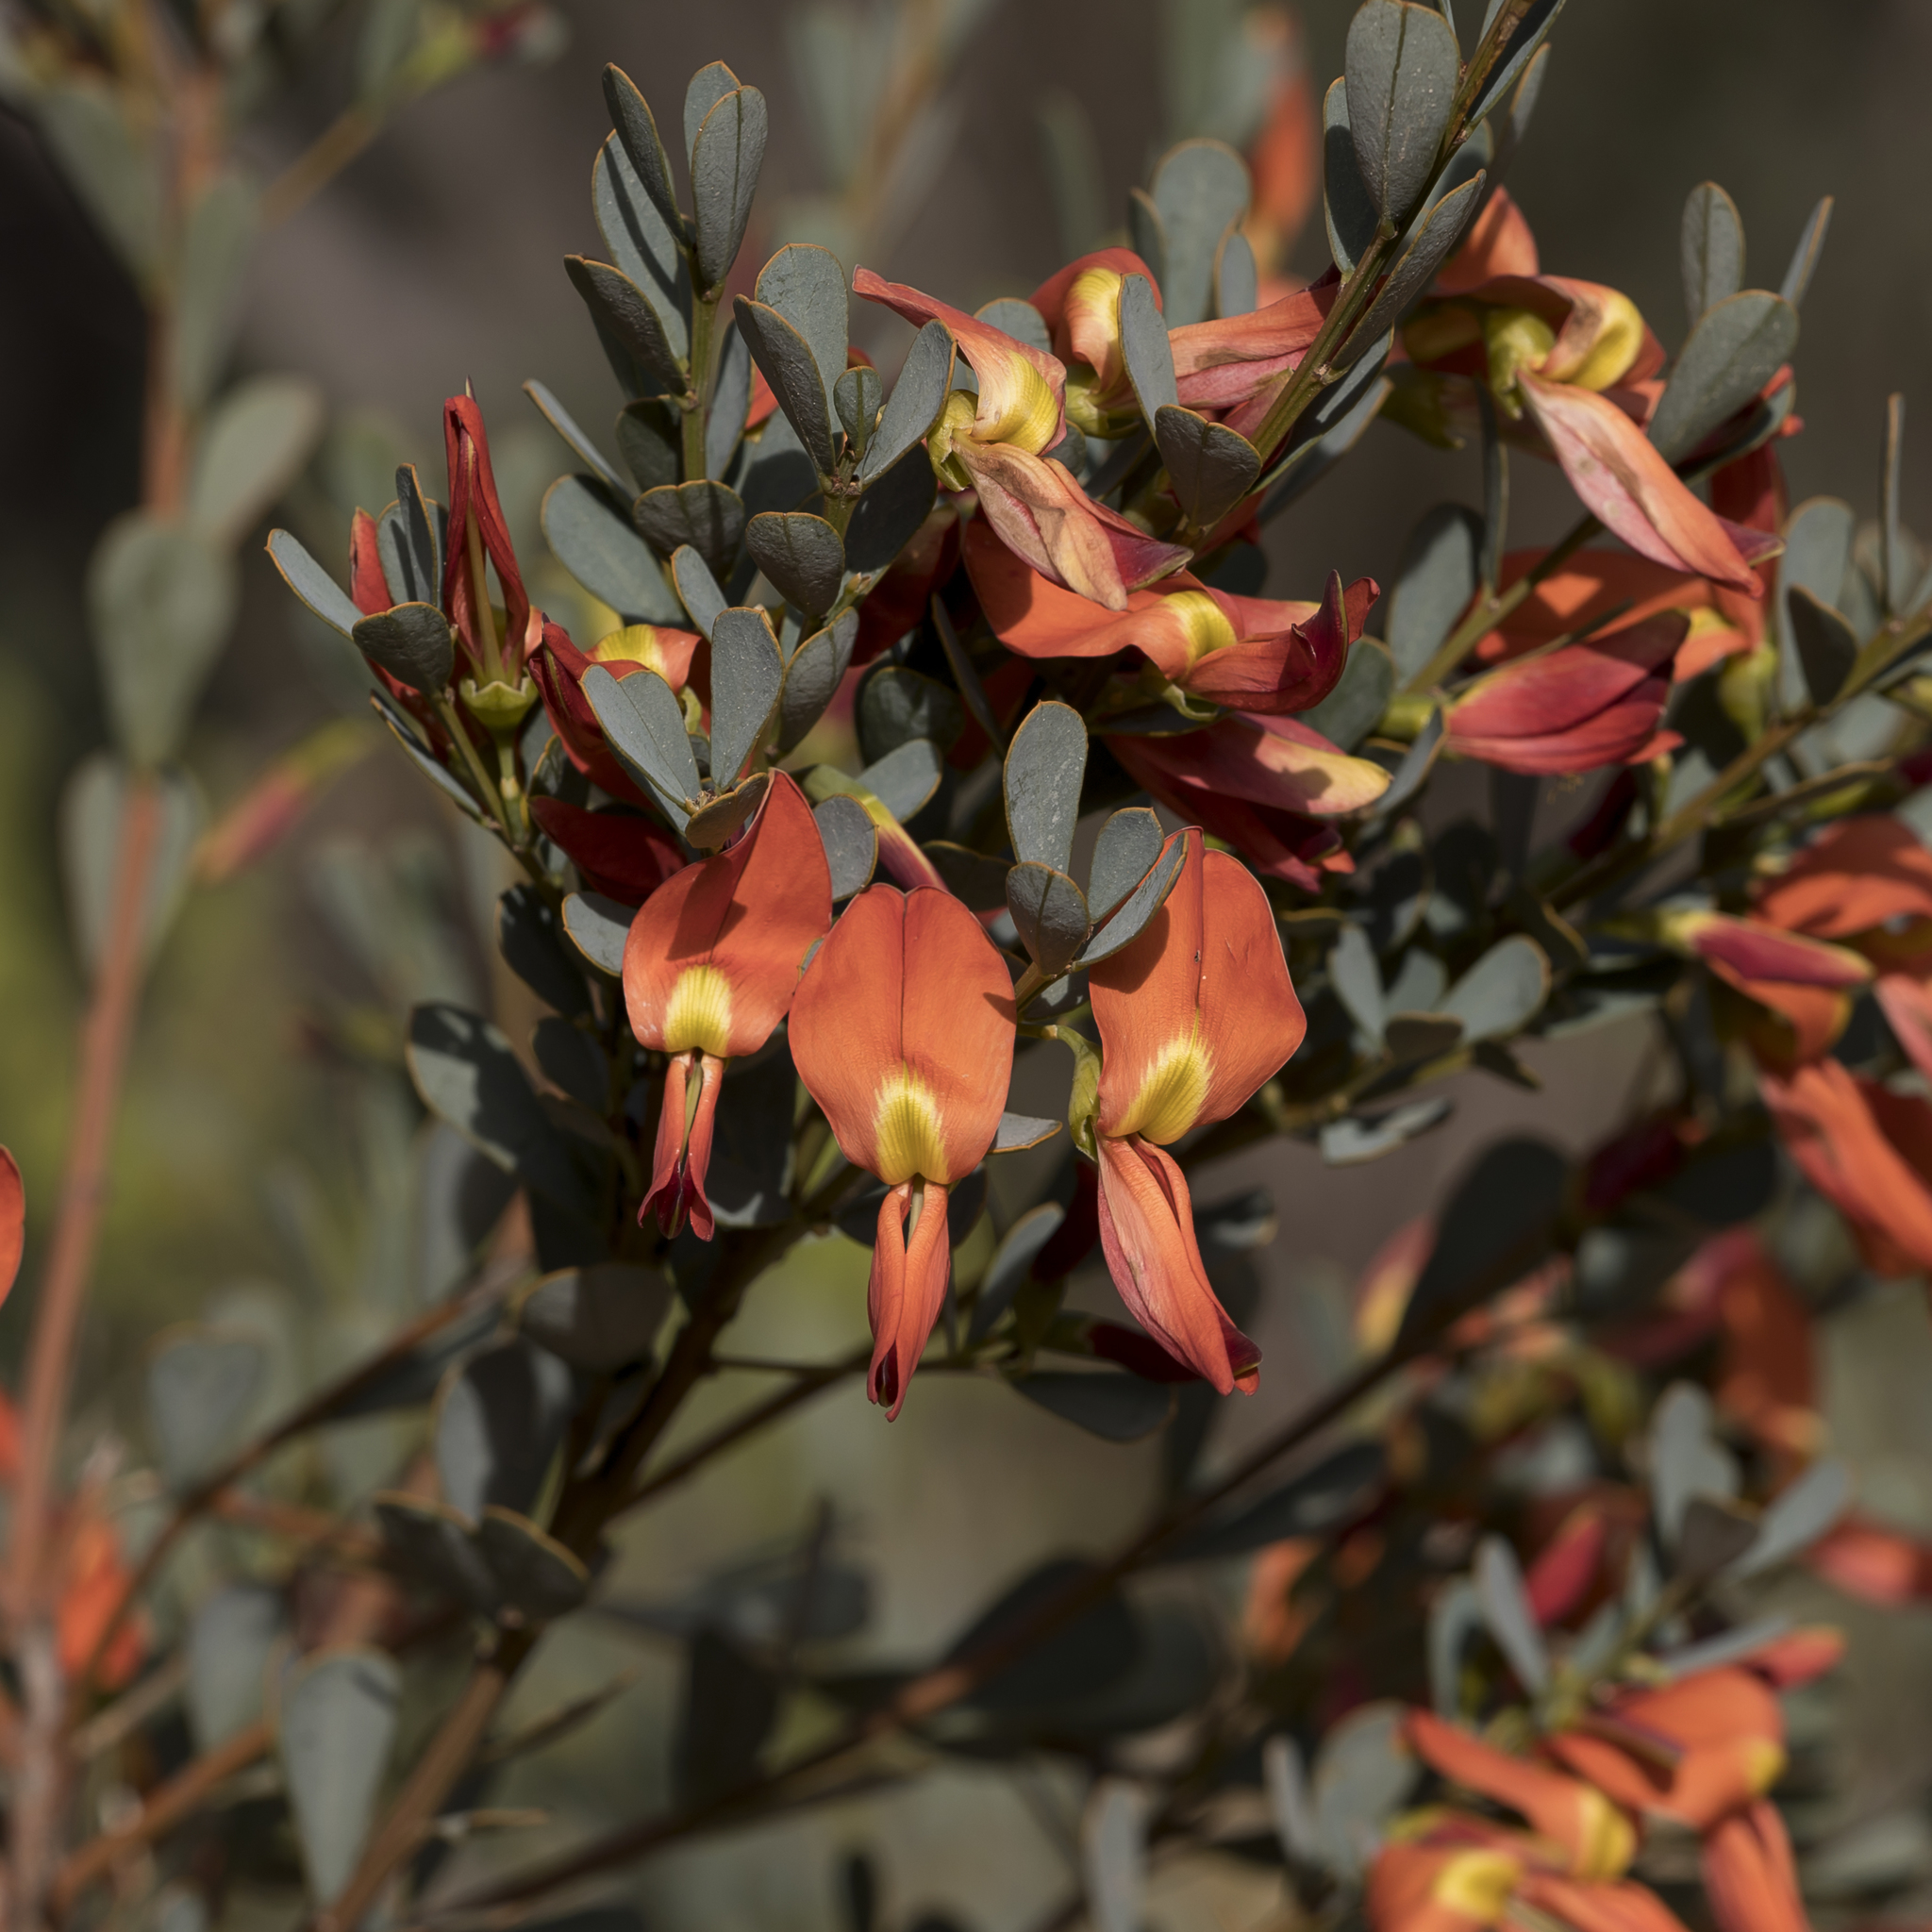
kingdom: Plantae
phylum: Tracheophyta
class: Magnoliopsida
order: Fabales
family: Fabaceae
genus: Templetonia
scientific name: Templetonia retusa
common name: Cockies'-tongue
